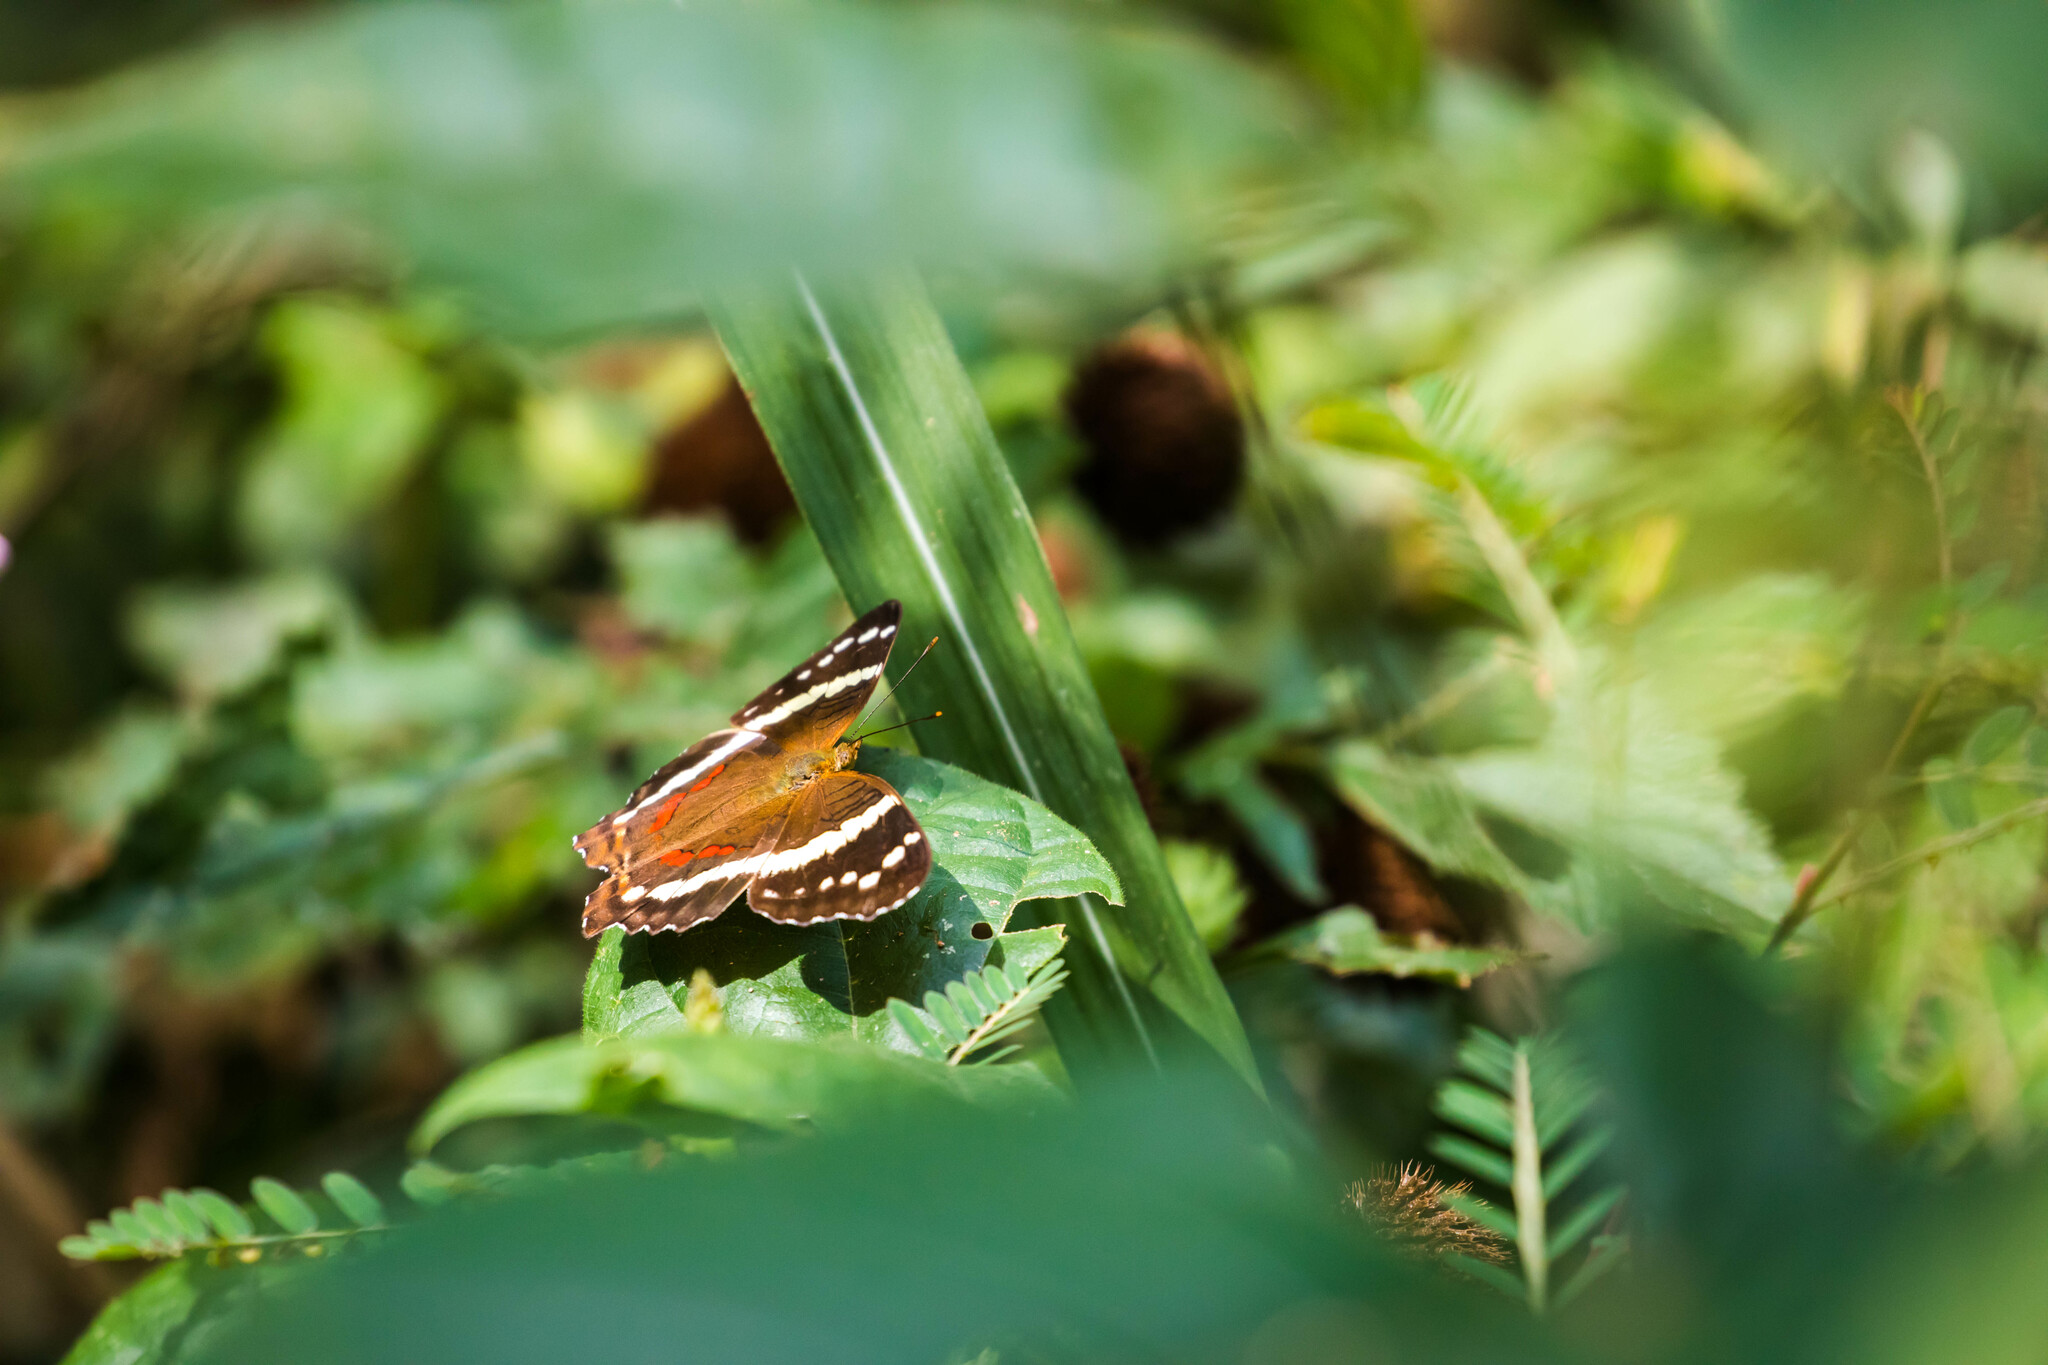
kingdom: Animalia
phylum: Arthropoda
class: Insecta
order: Lepidoptera
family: Nymphalidae
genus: Anartia
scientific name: Anartia fatima
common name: Banded peacock
